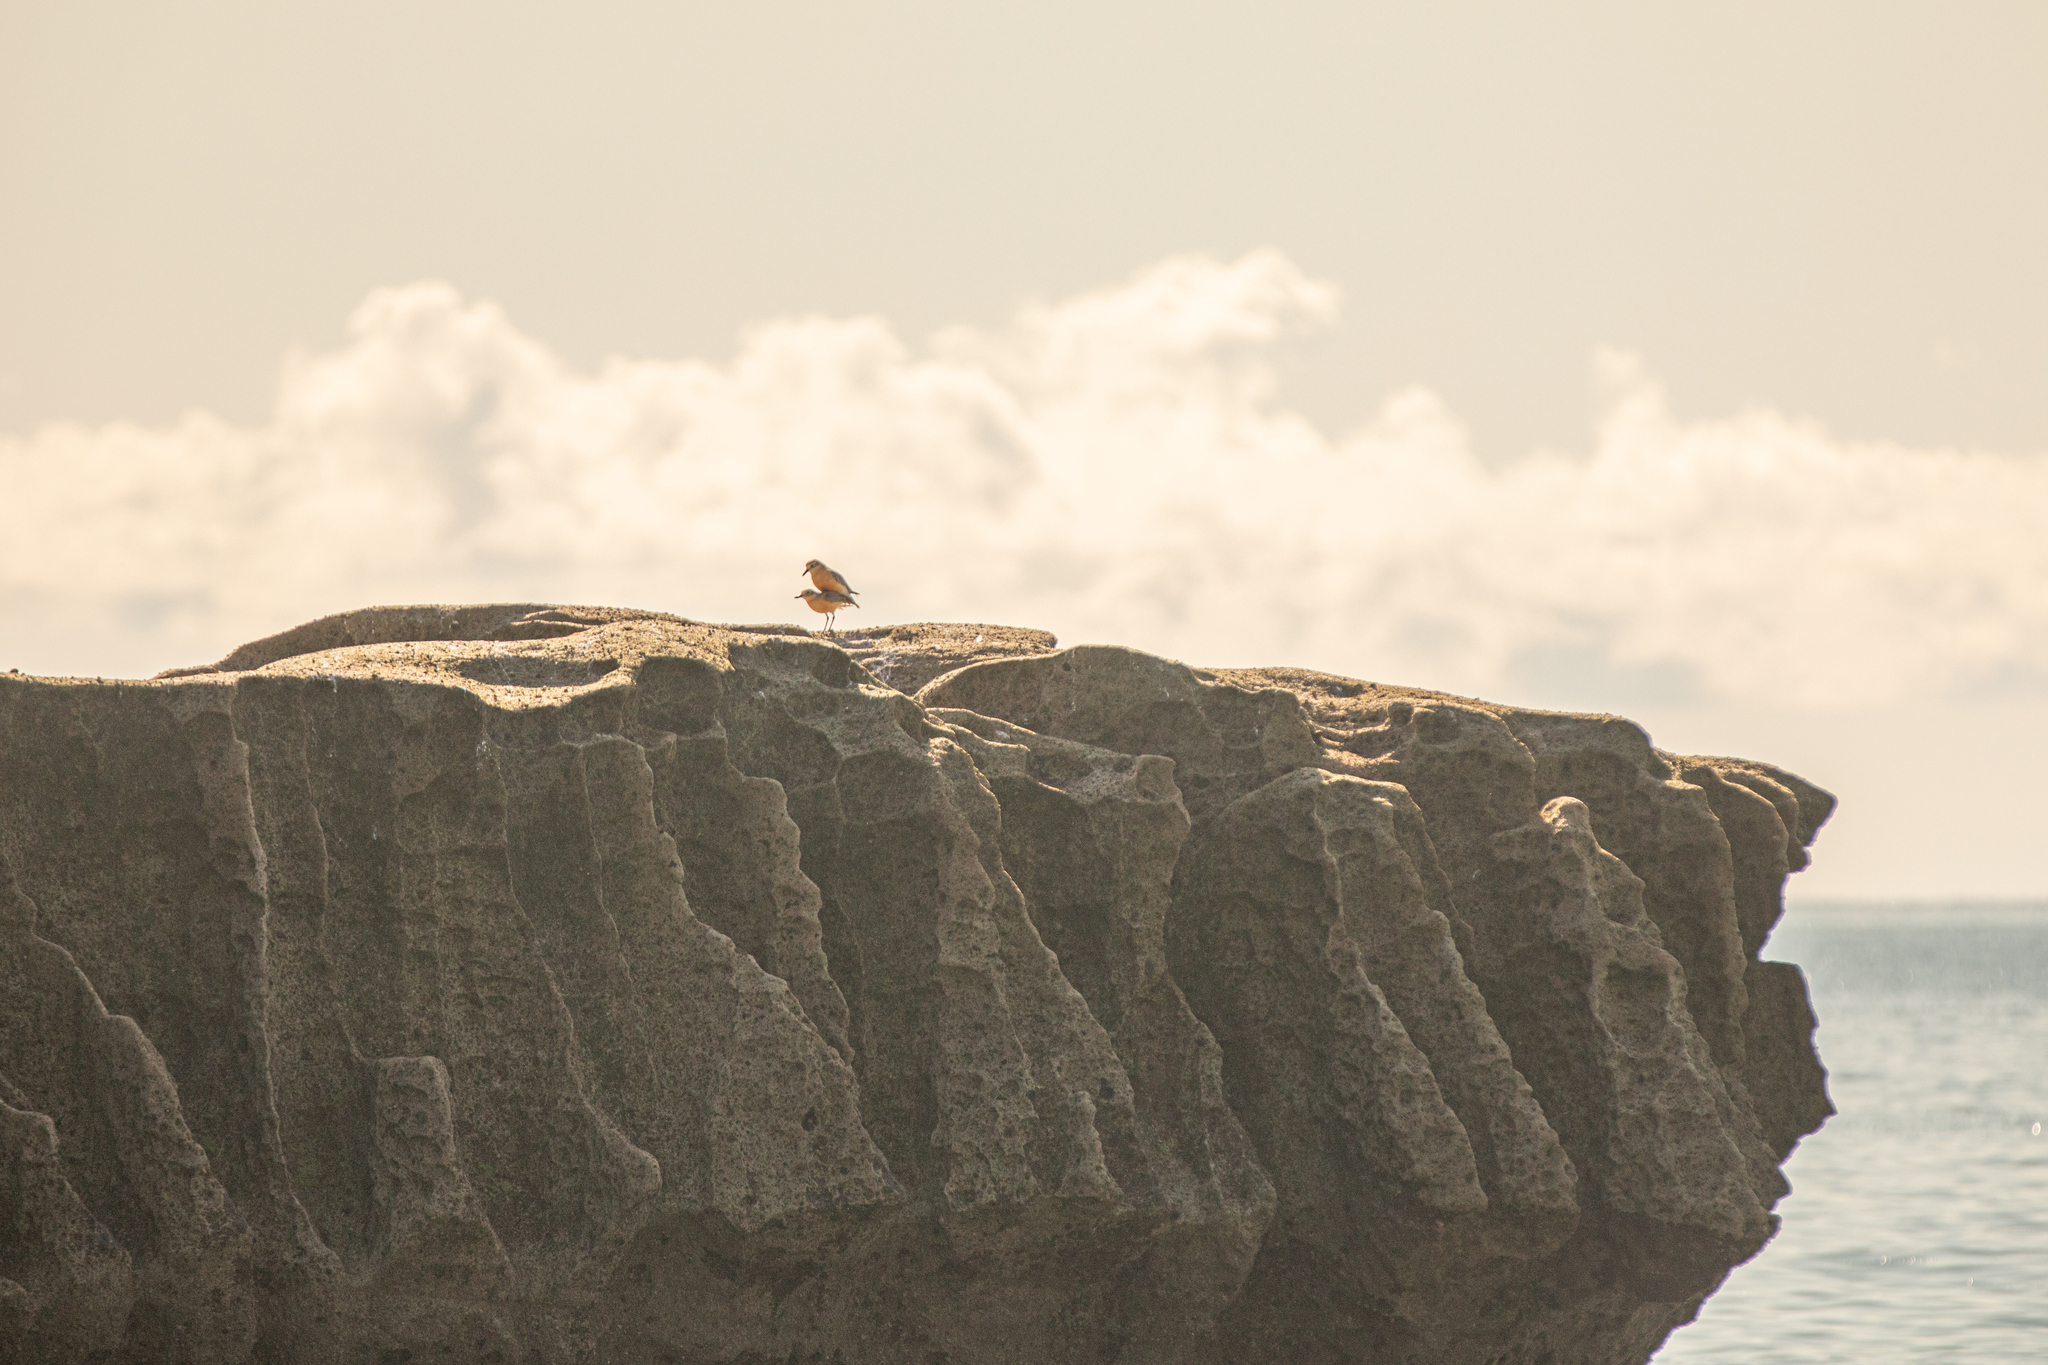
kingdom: Animalia
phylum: Chordata
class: Aves
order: Charadriiformes
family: Charadriidae
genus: Anarhynchus
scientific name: Anarhynchus
